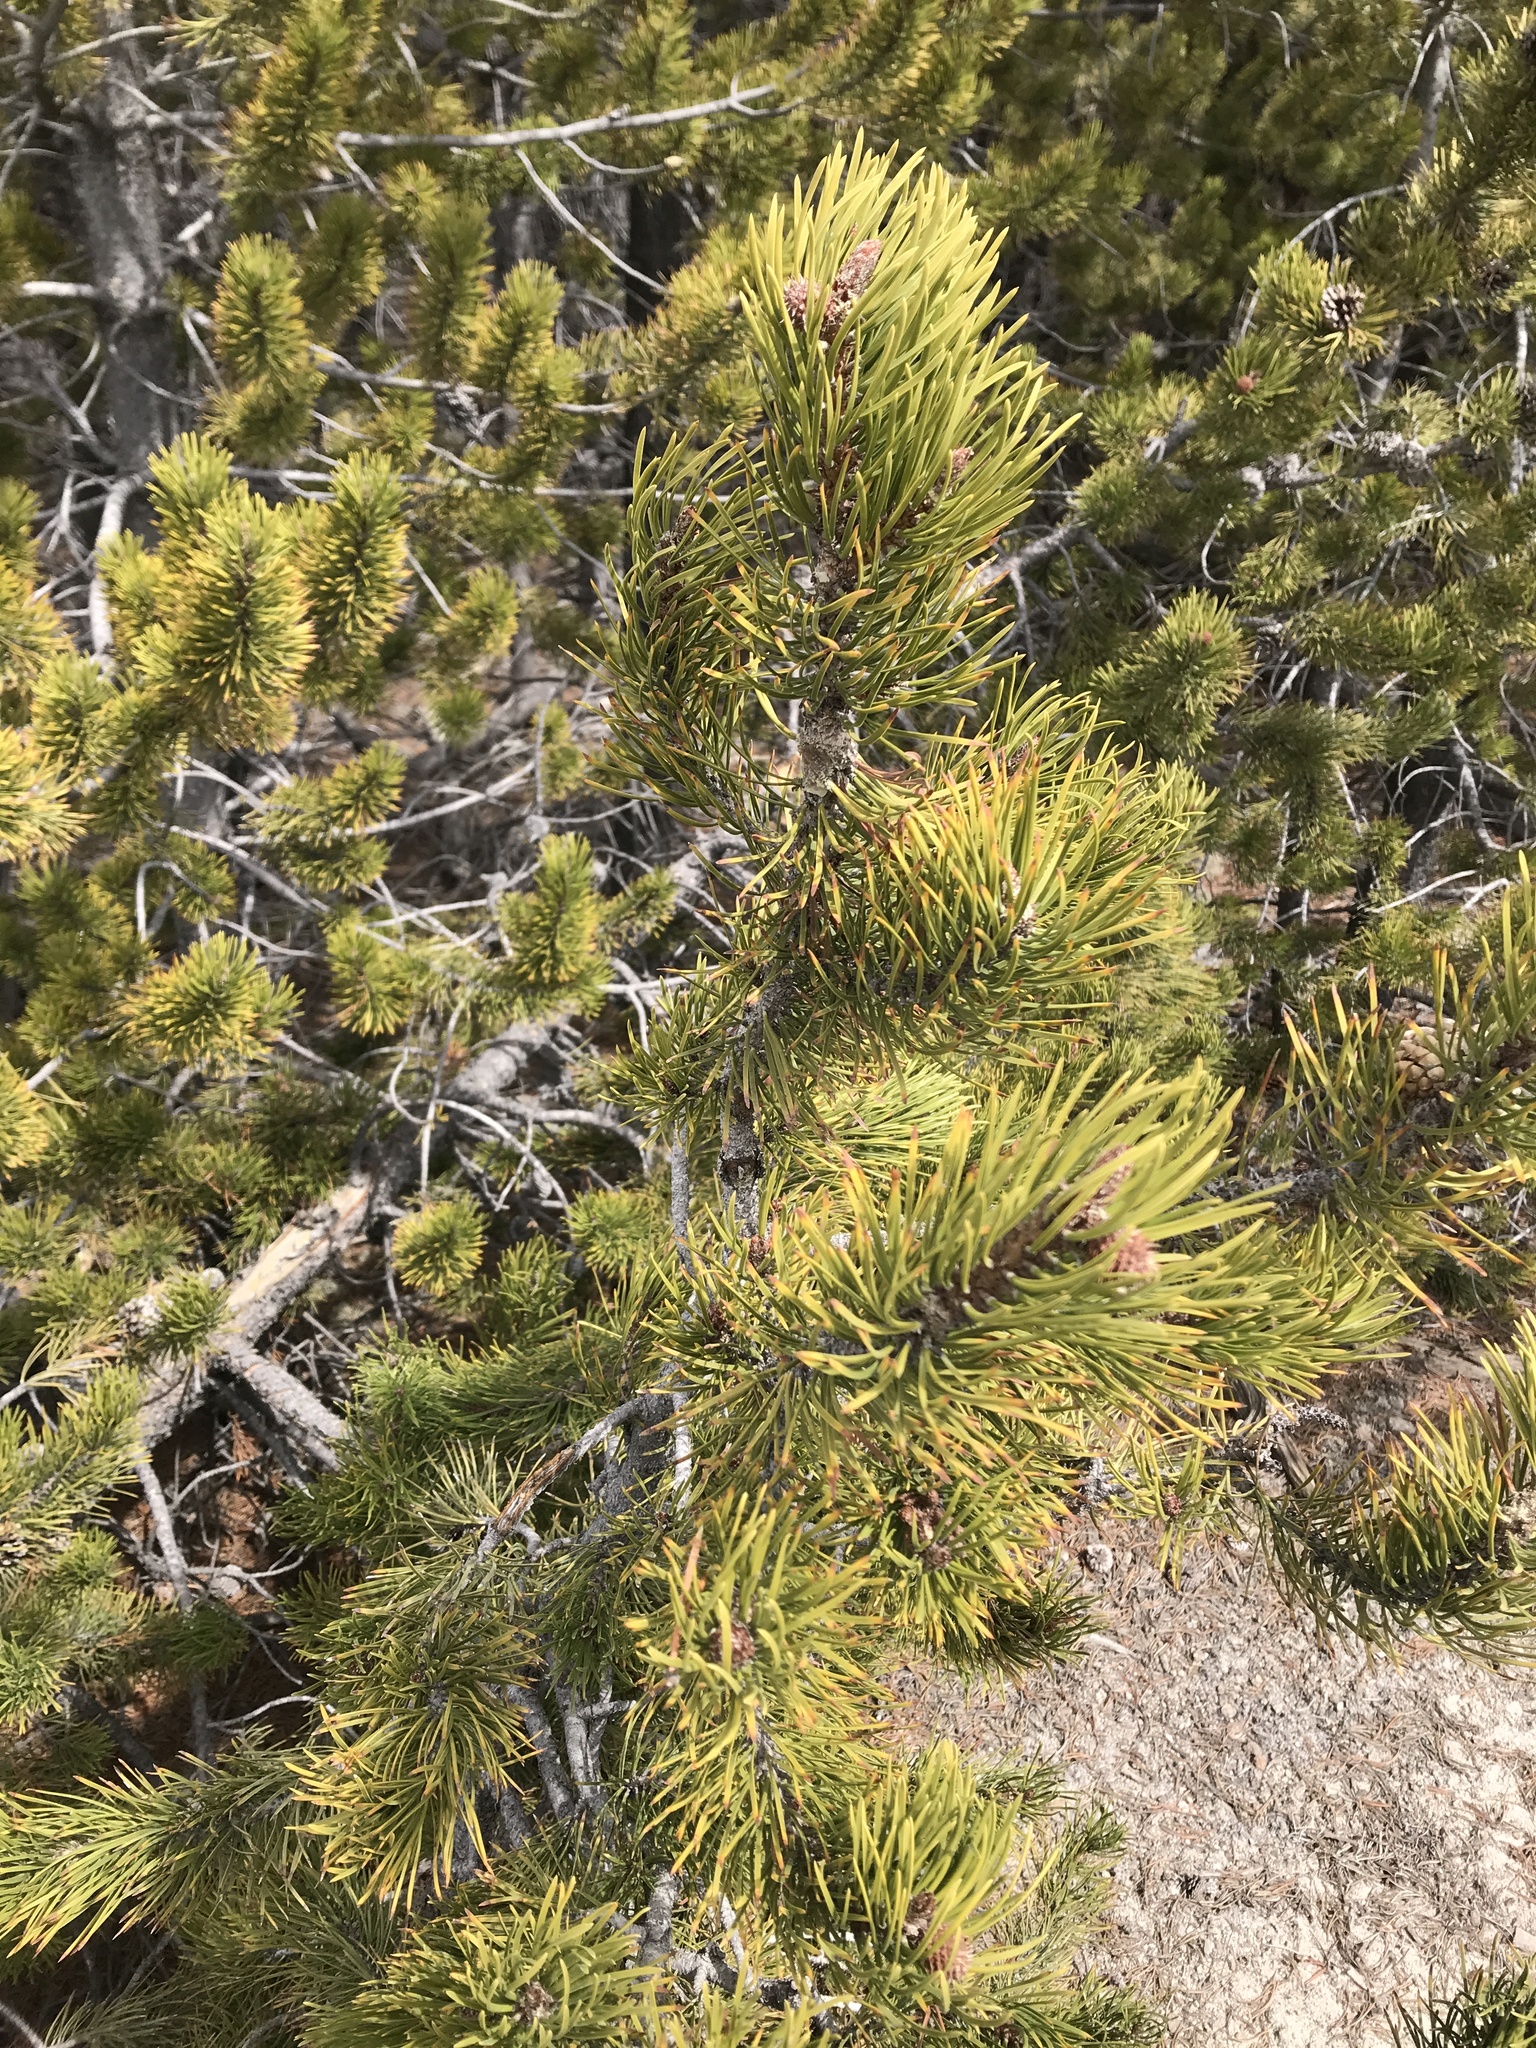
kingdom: Plantae
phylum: Tracheophyta
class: Pinopsida
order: Pinales
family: Pinaceae
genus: Pinus
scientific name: Pinus contorta
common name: Lodgepole pine
